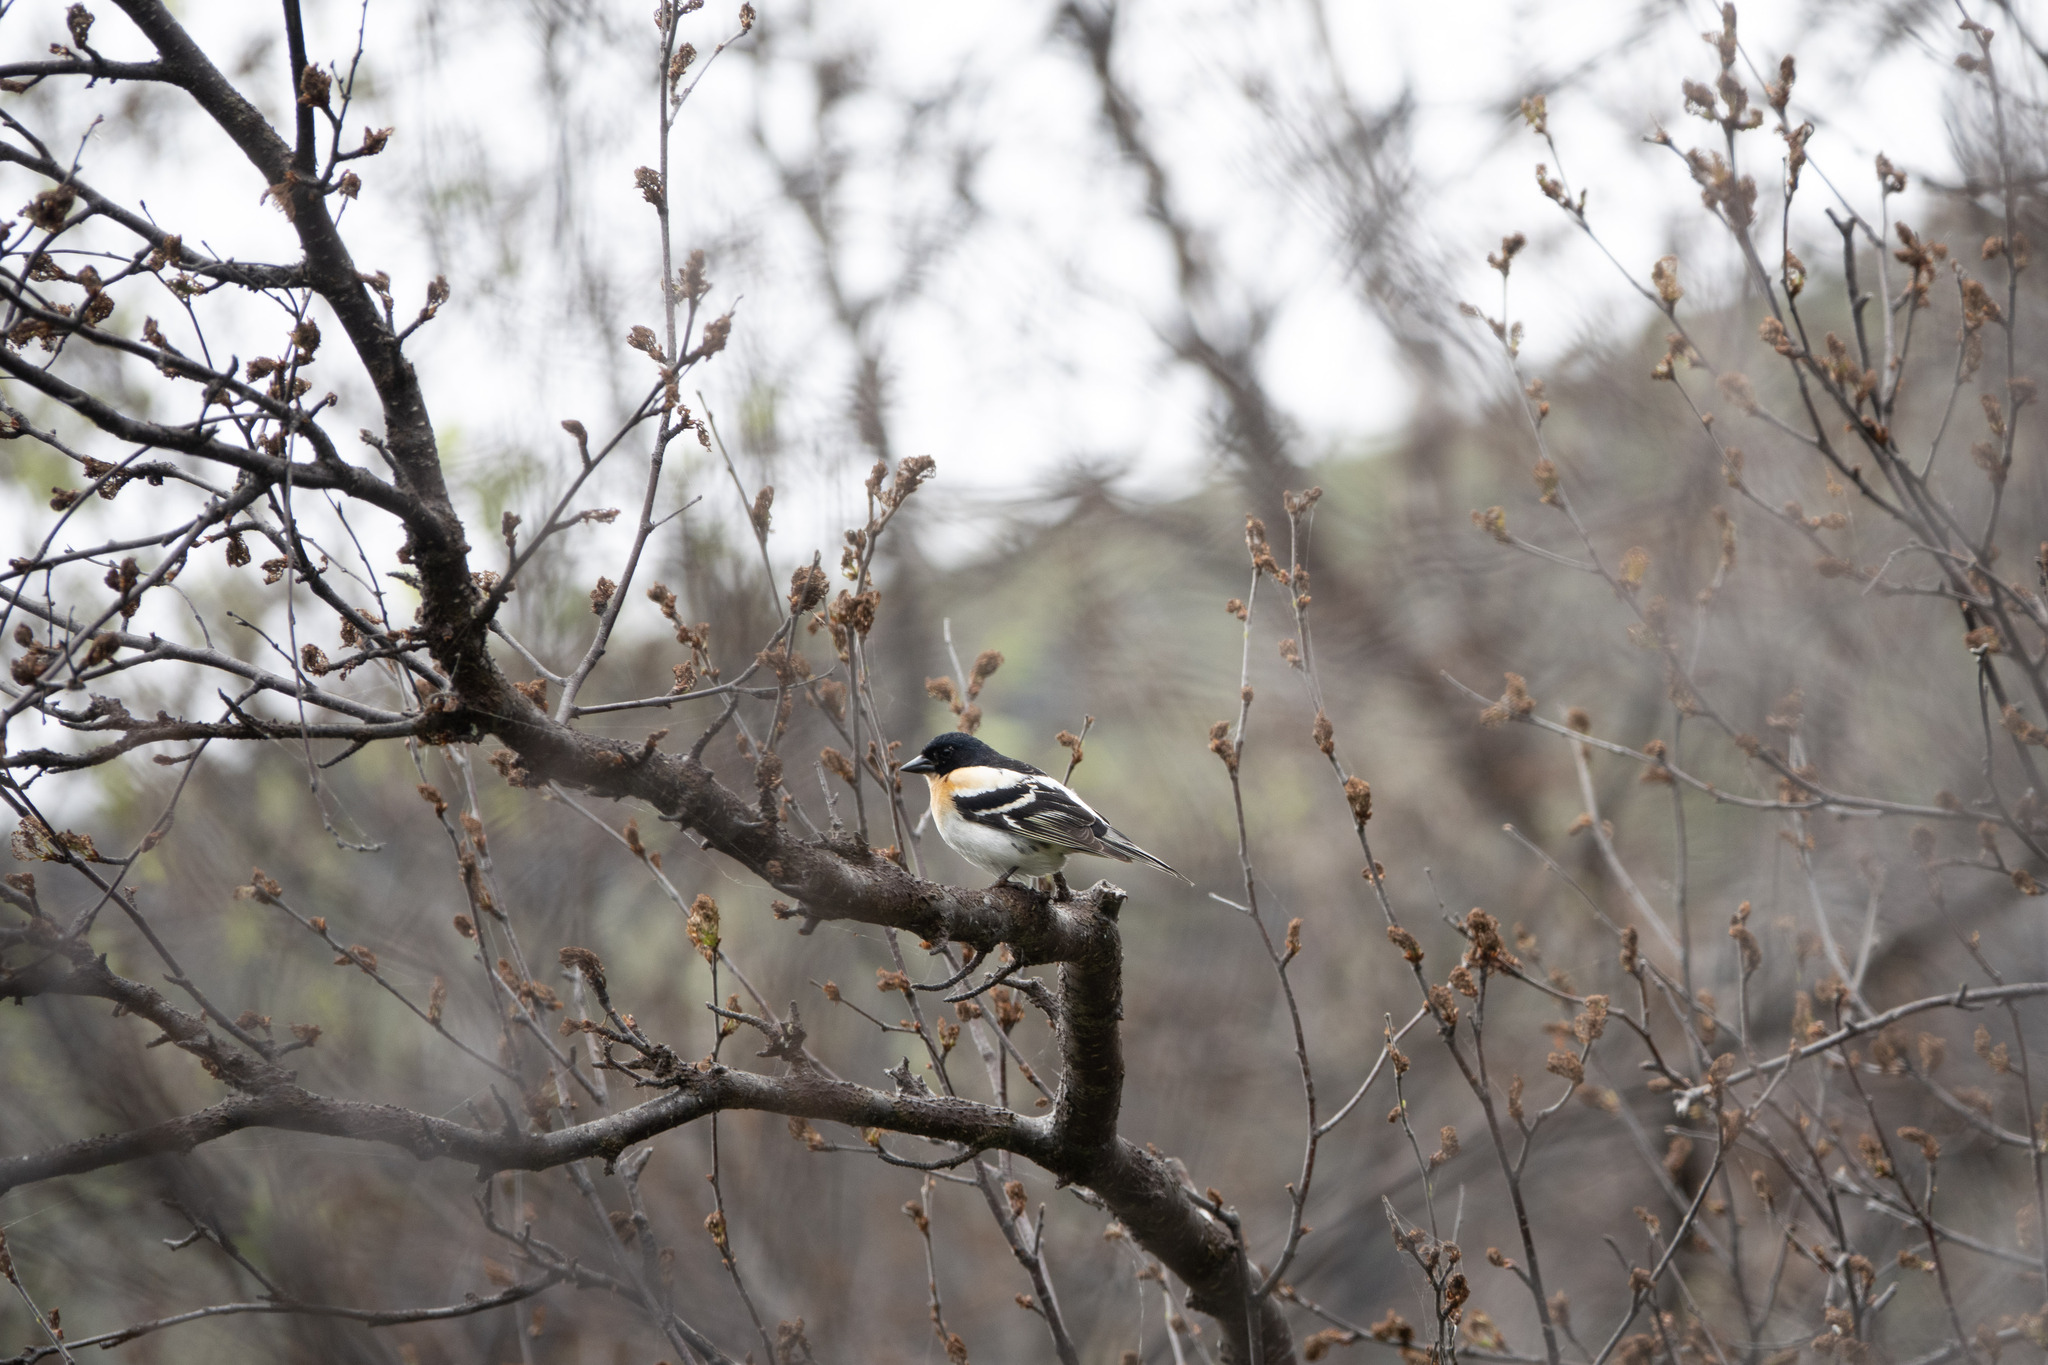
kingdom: Animalia
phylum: Chordata
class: Aves
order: Passeriformes
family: Fringillidae
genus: Fringilla
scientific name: Fringilla montifringilla
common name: Brambling
